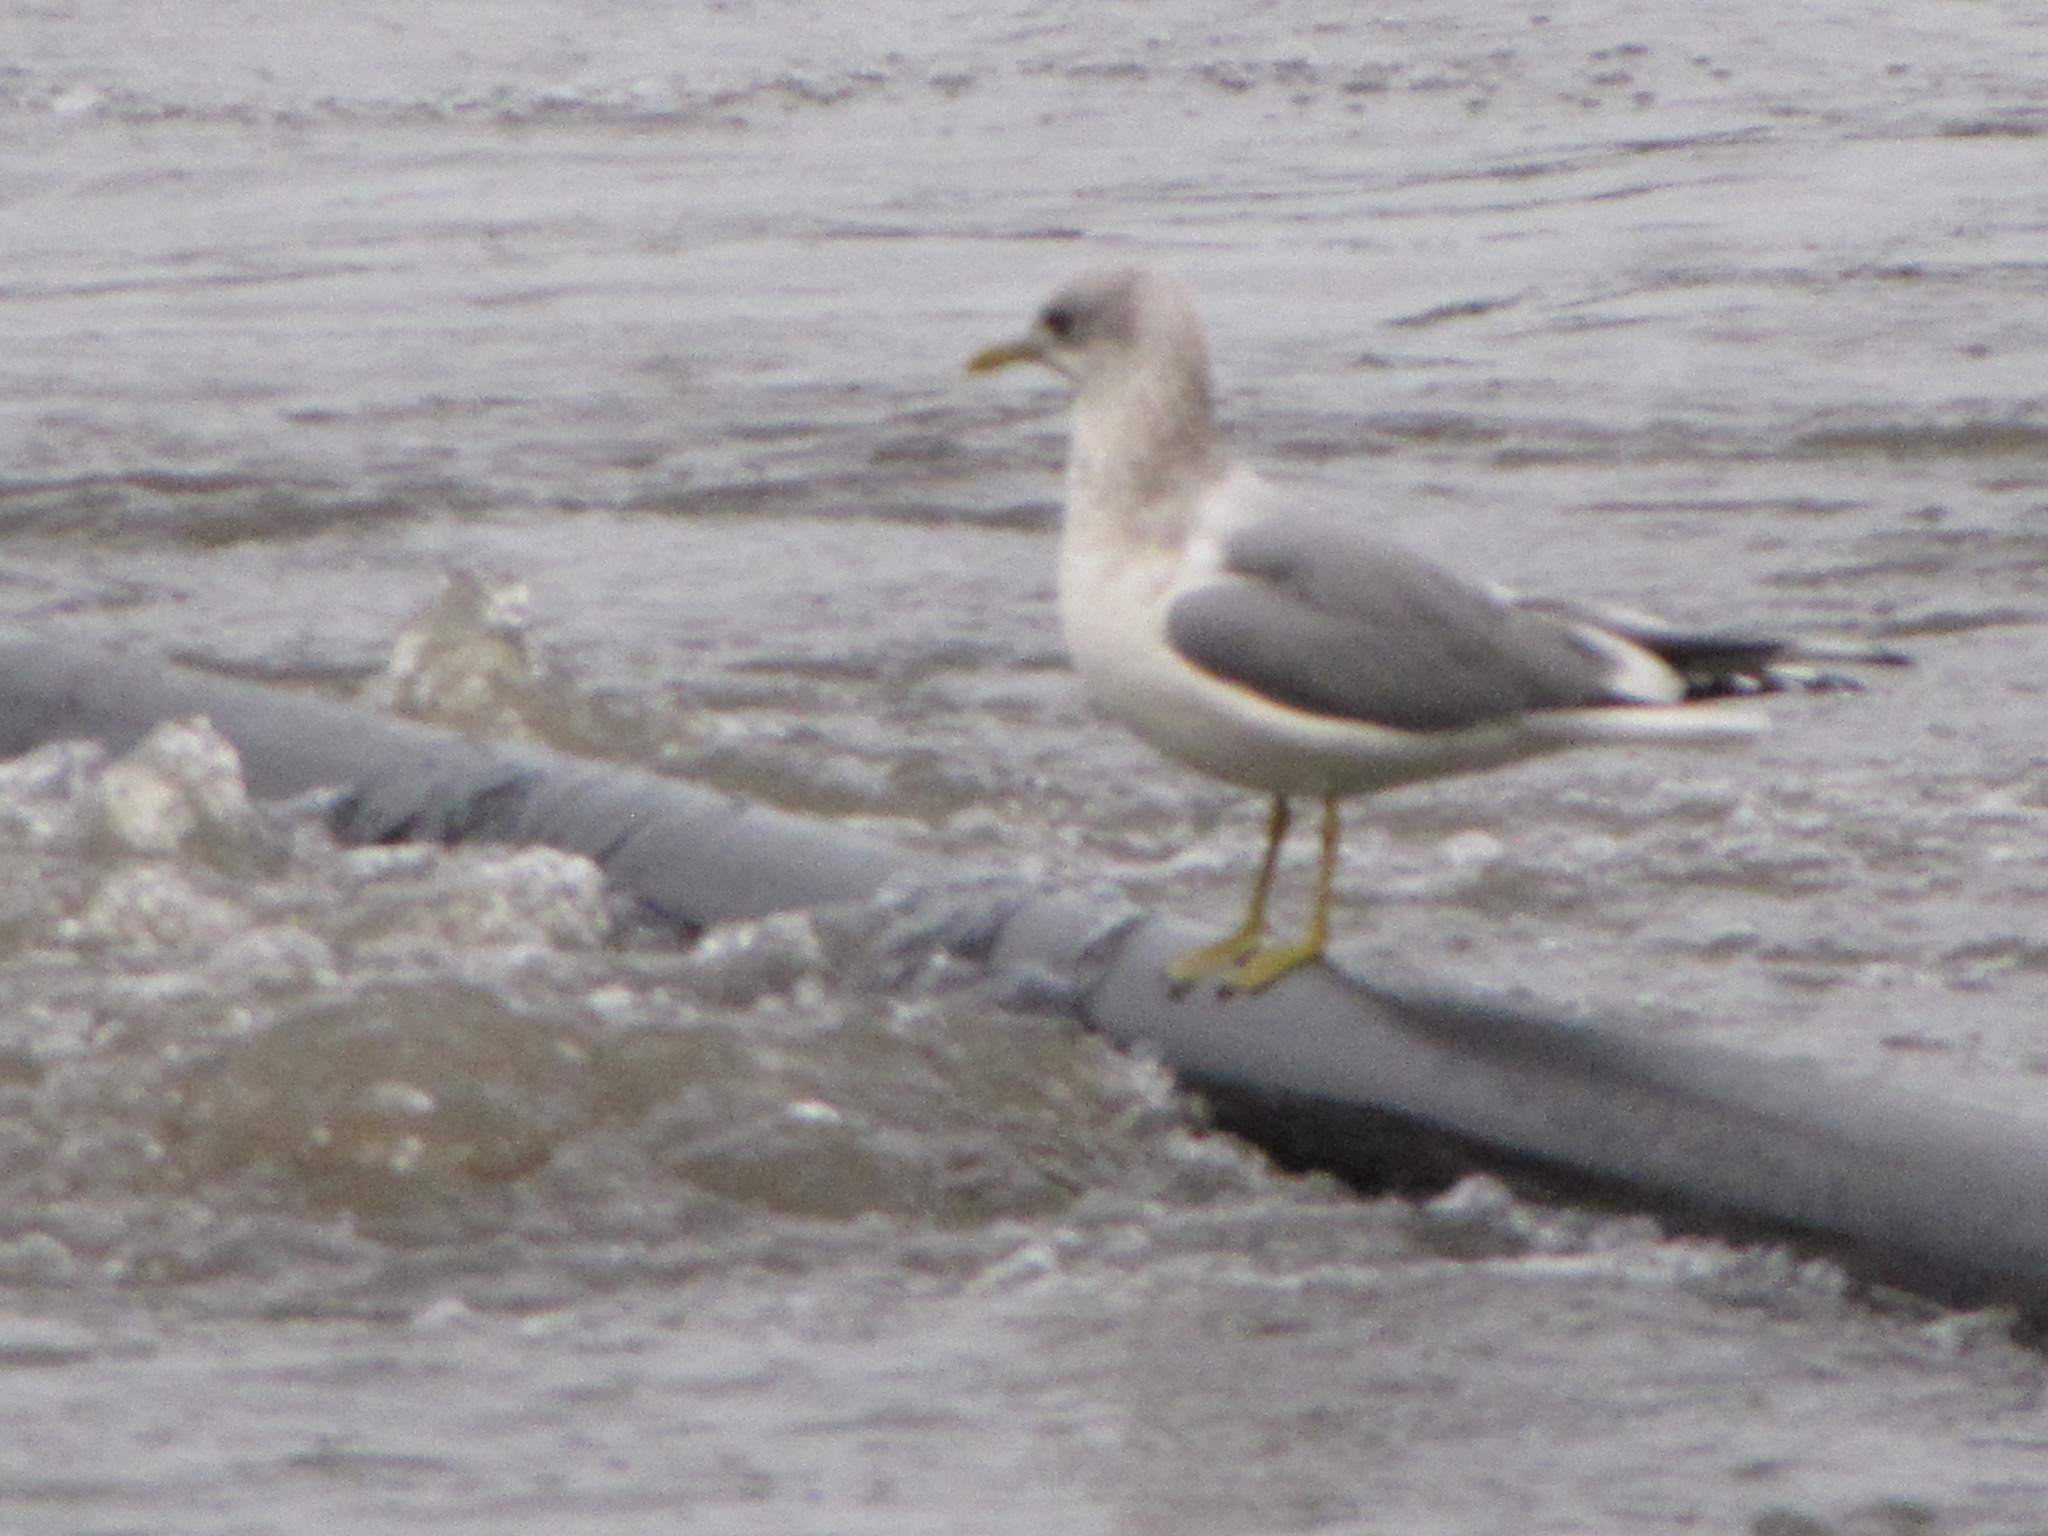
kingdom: Animalia
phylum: Chordata
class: Aves
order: Charadriiformes
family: Laridae
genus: Larus
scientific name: Larus brachyrhynchus
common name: Short-billed gull
